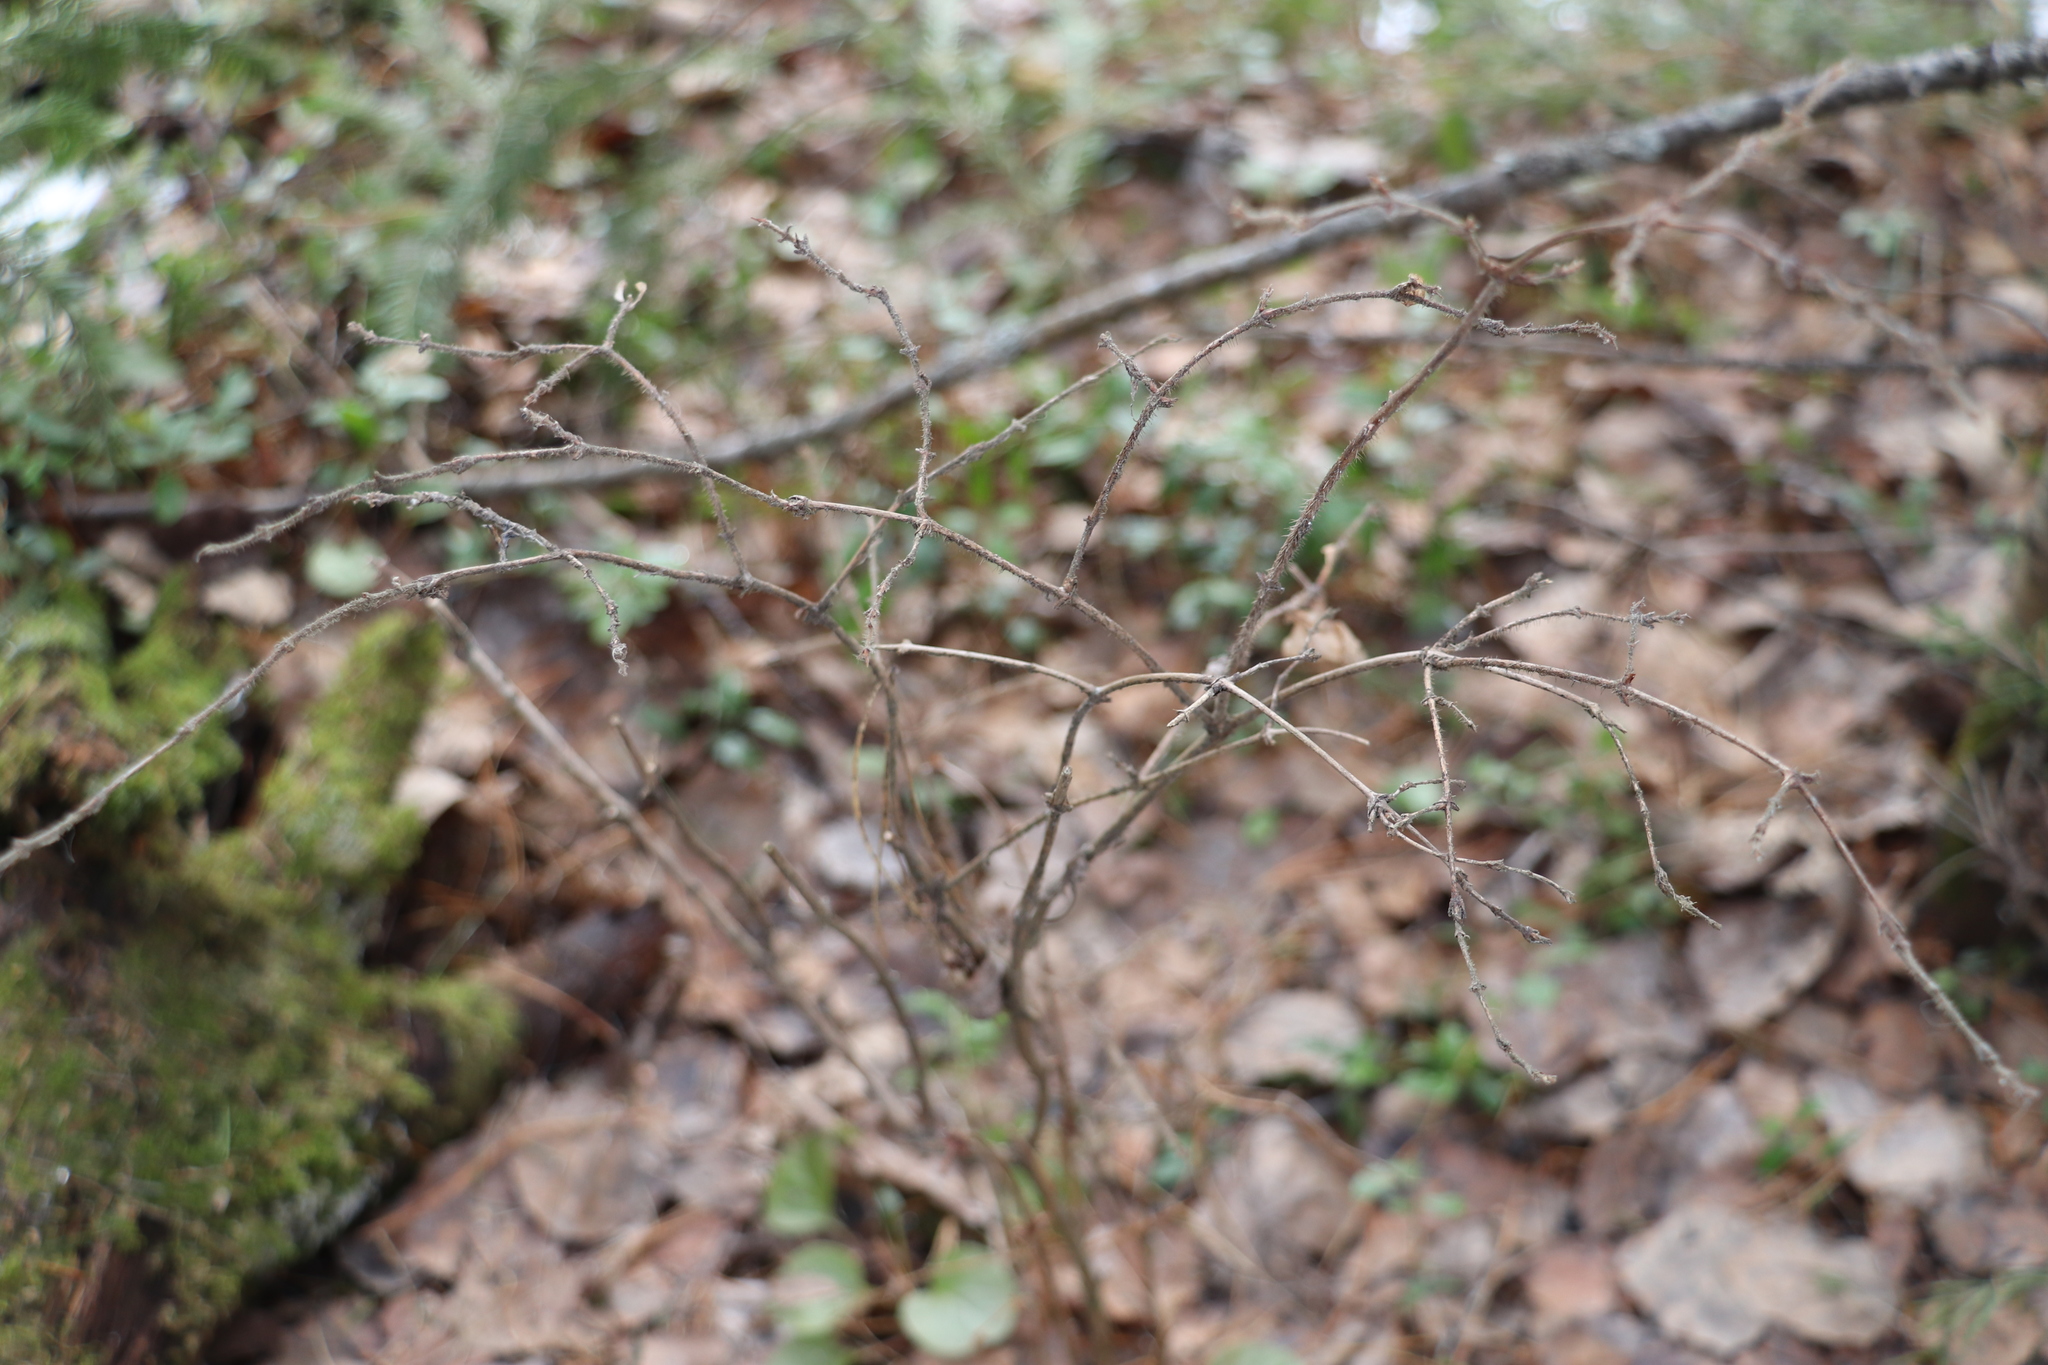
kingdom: Plantae
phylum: Tracheophyta
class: Magnoliopsida
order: Dipsacales
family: Caprifoliaceae
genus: Lonicera
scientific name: Lonicera caerulea
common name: Blue honeysuckle
